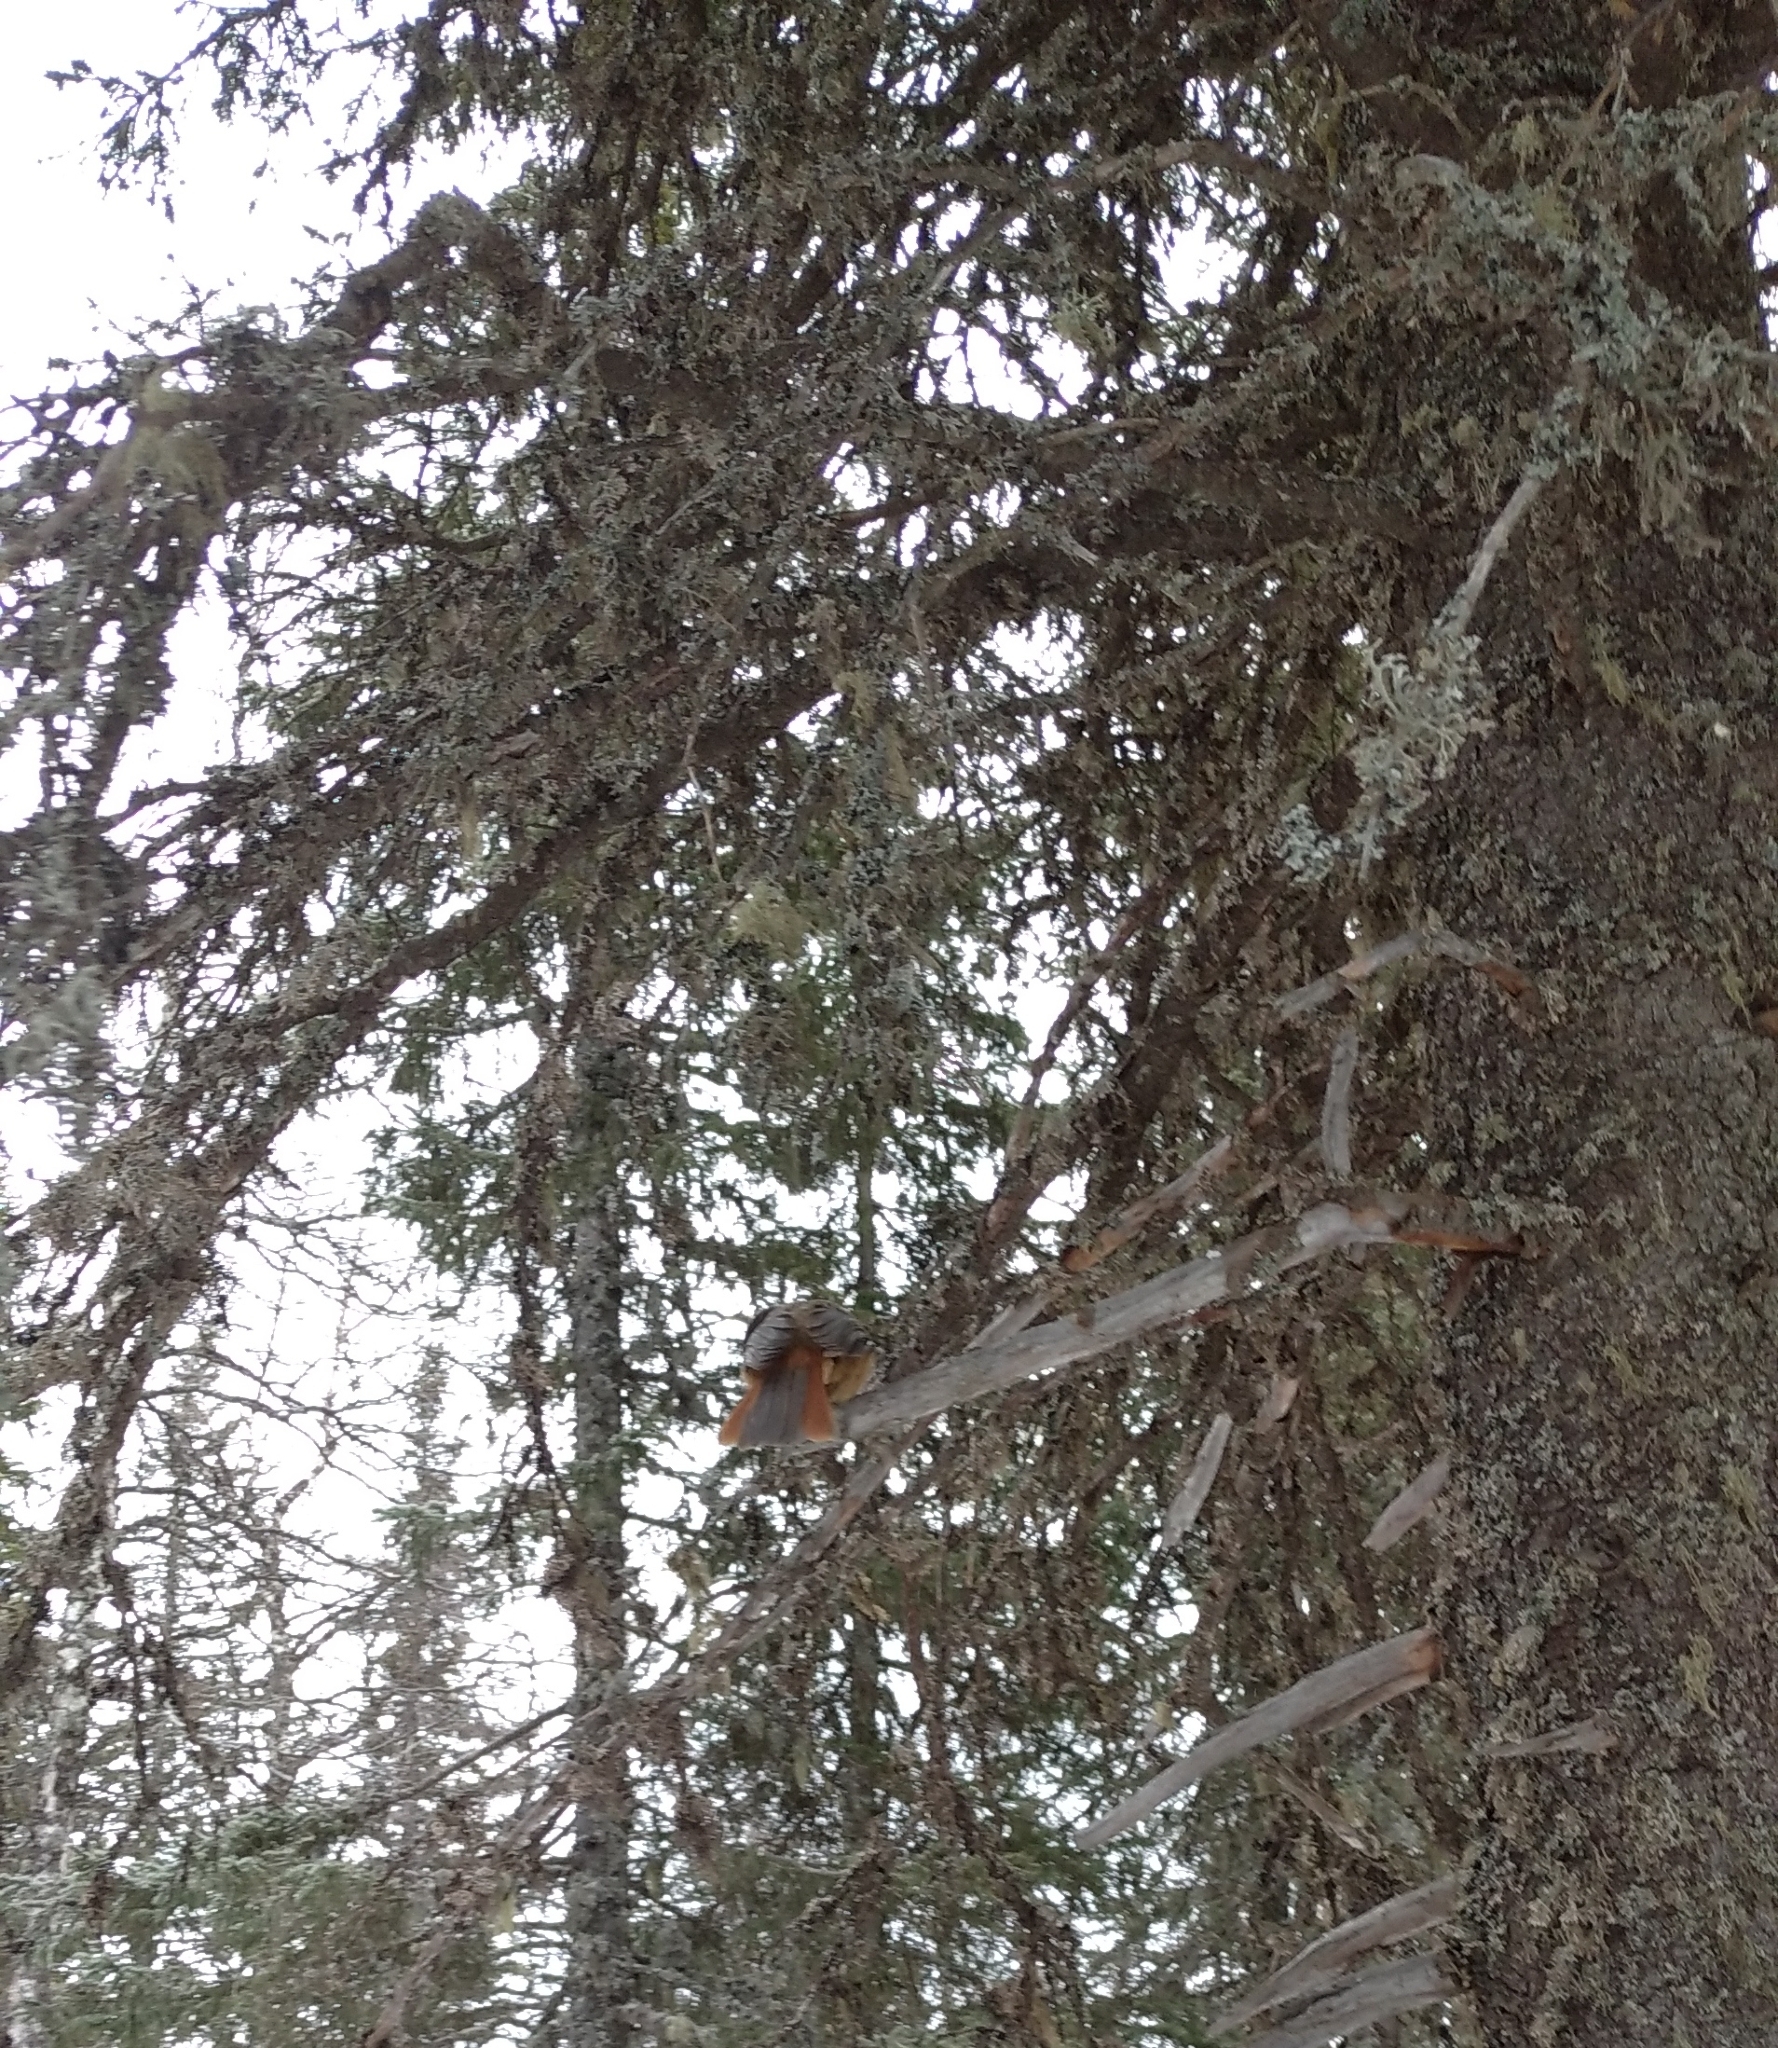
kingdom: Animalia
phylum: Chordata
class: Aves
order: Passeriformes
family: Corvidae
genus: Perisoreus
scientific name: Perisoreus infaustus
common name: Siberian jay
